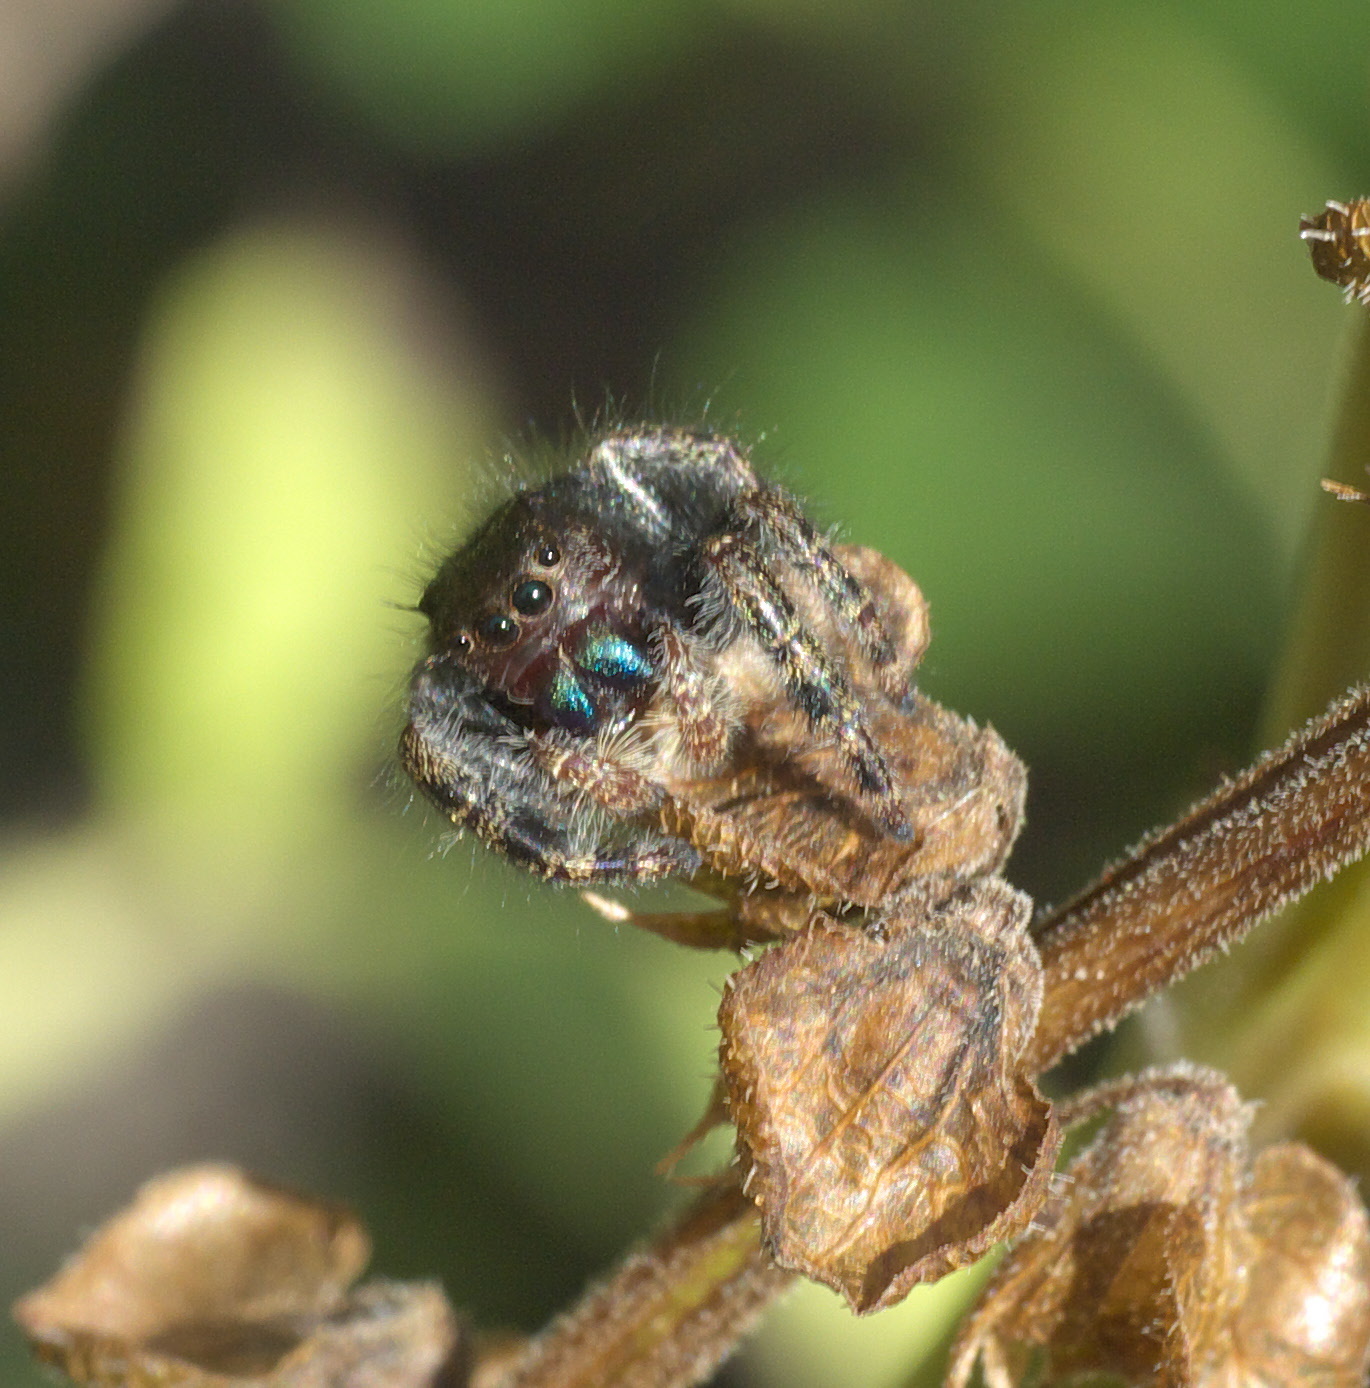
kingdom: Animalia
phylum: Arthropoda
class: Arachnida
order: Araneae
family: Salticidae
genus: Phidippus
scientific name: Phidippus audax
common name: Bold jumper
